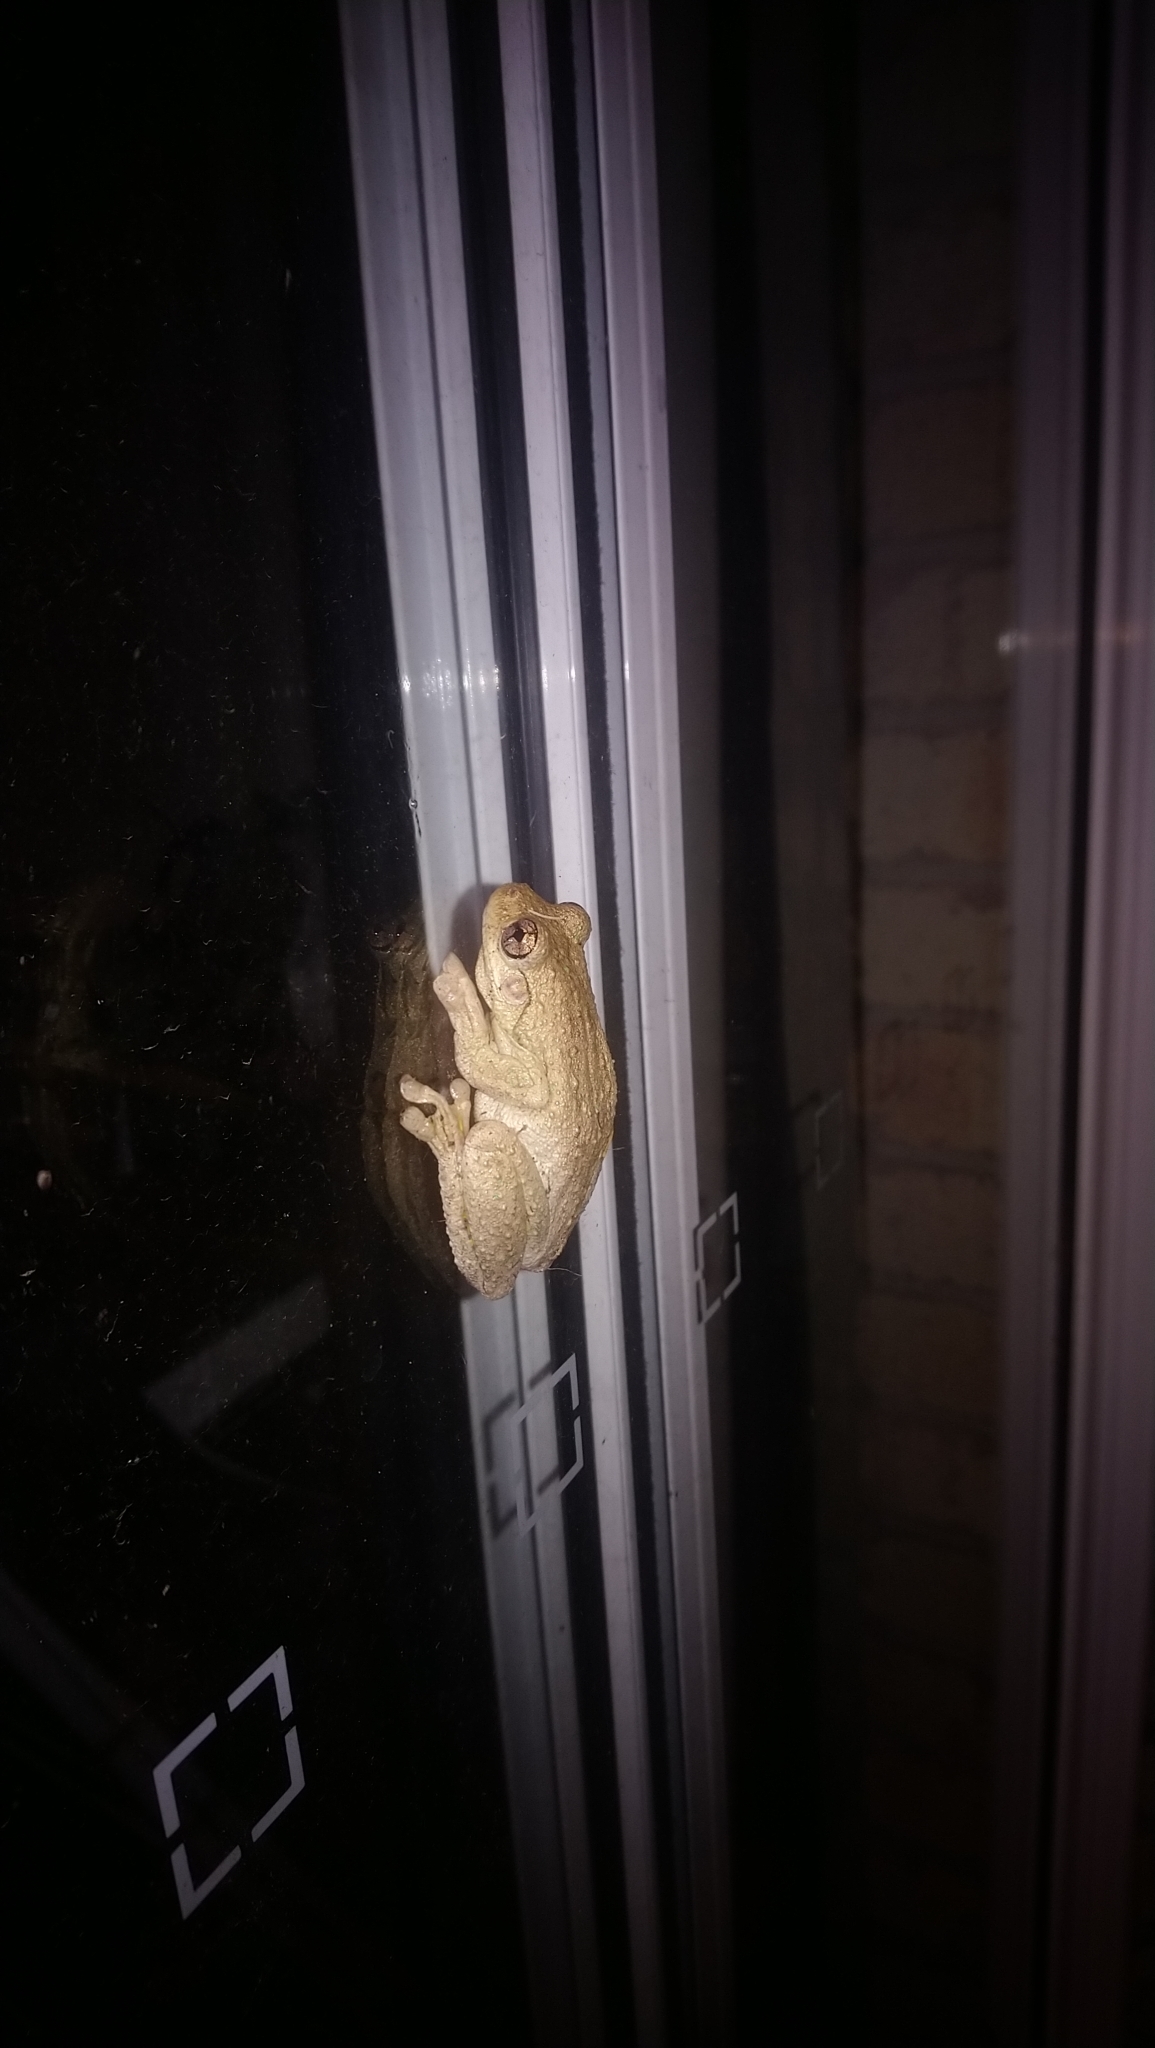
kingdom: Animalia
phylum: Chordata
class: Amphibia
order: Anura
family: Pelodryadidae
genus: Litoria
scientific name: Litoria peronii
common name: Emerald spotted treefrog
